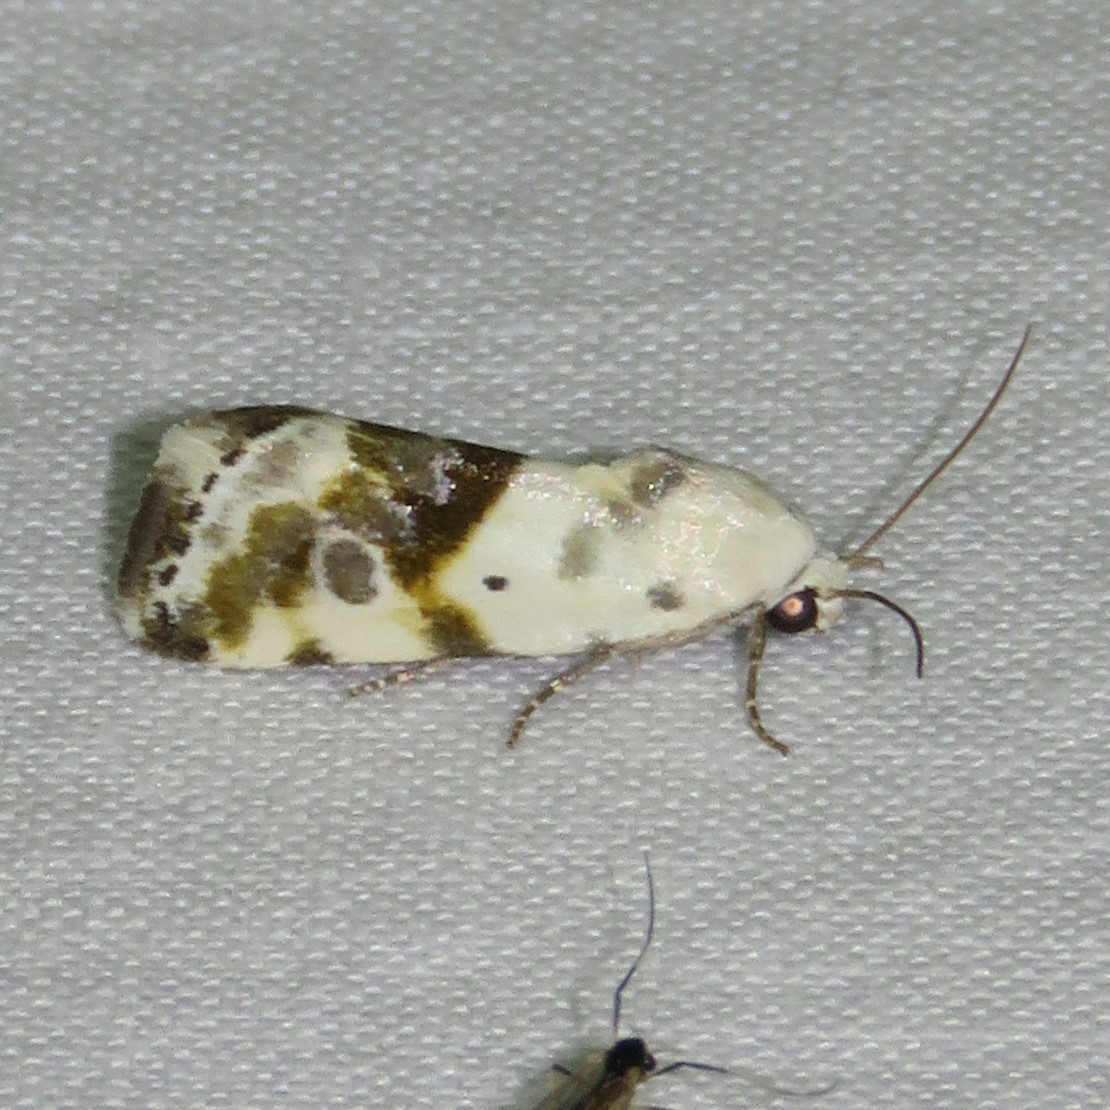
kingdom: Animalia
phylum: Arthropoda
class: Insecta
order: Lepidoptera
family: Noctuidae
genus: Acontia
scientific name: Acontia candefacta
